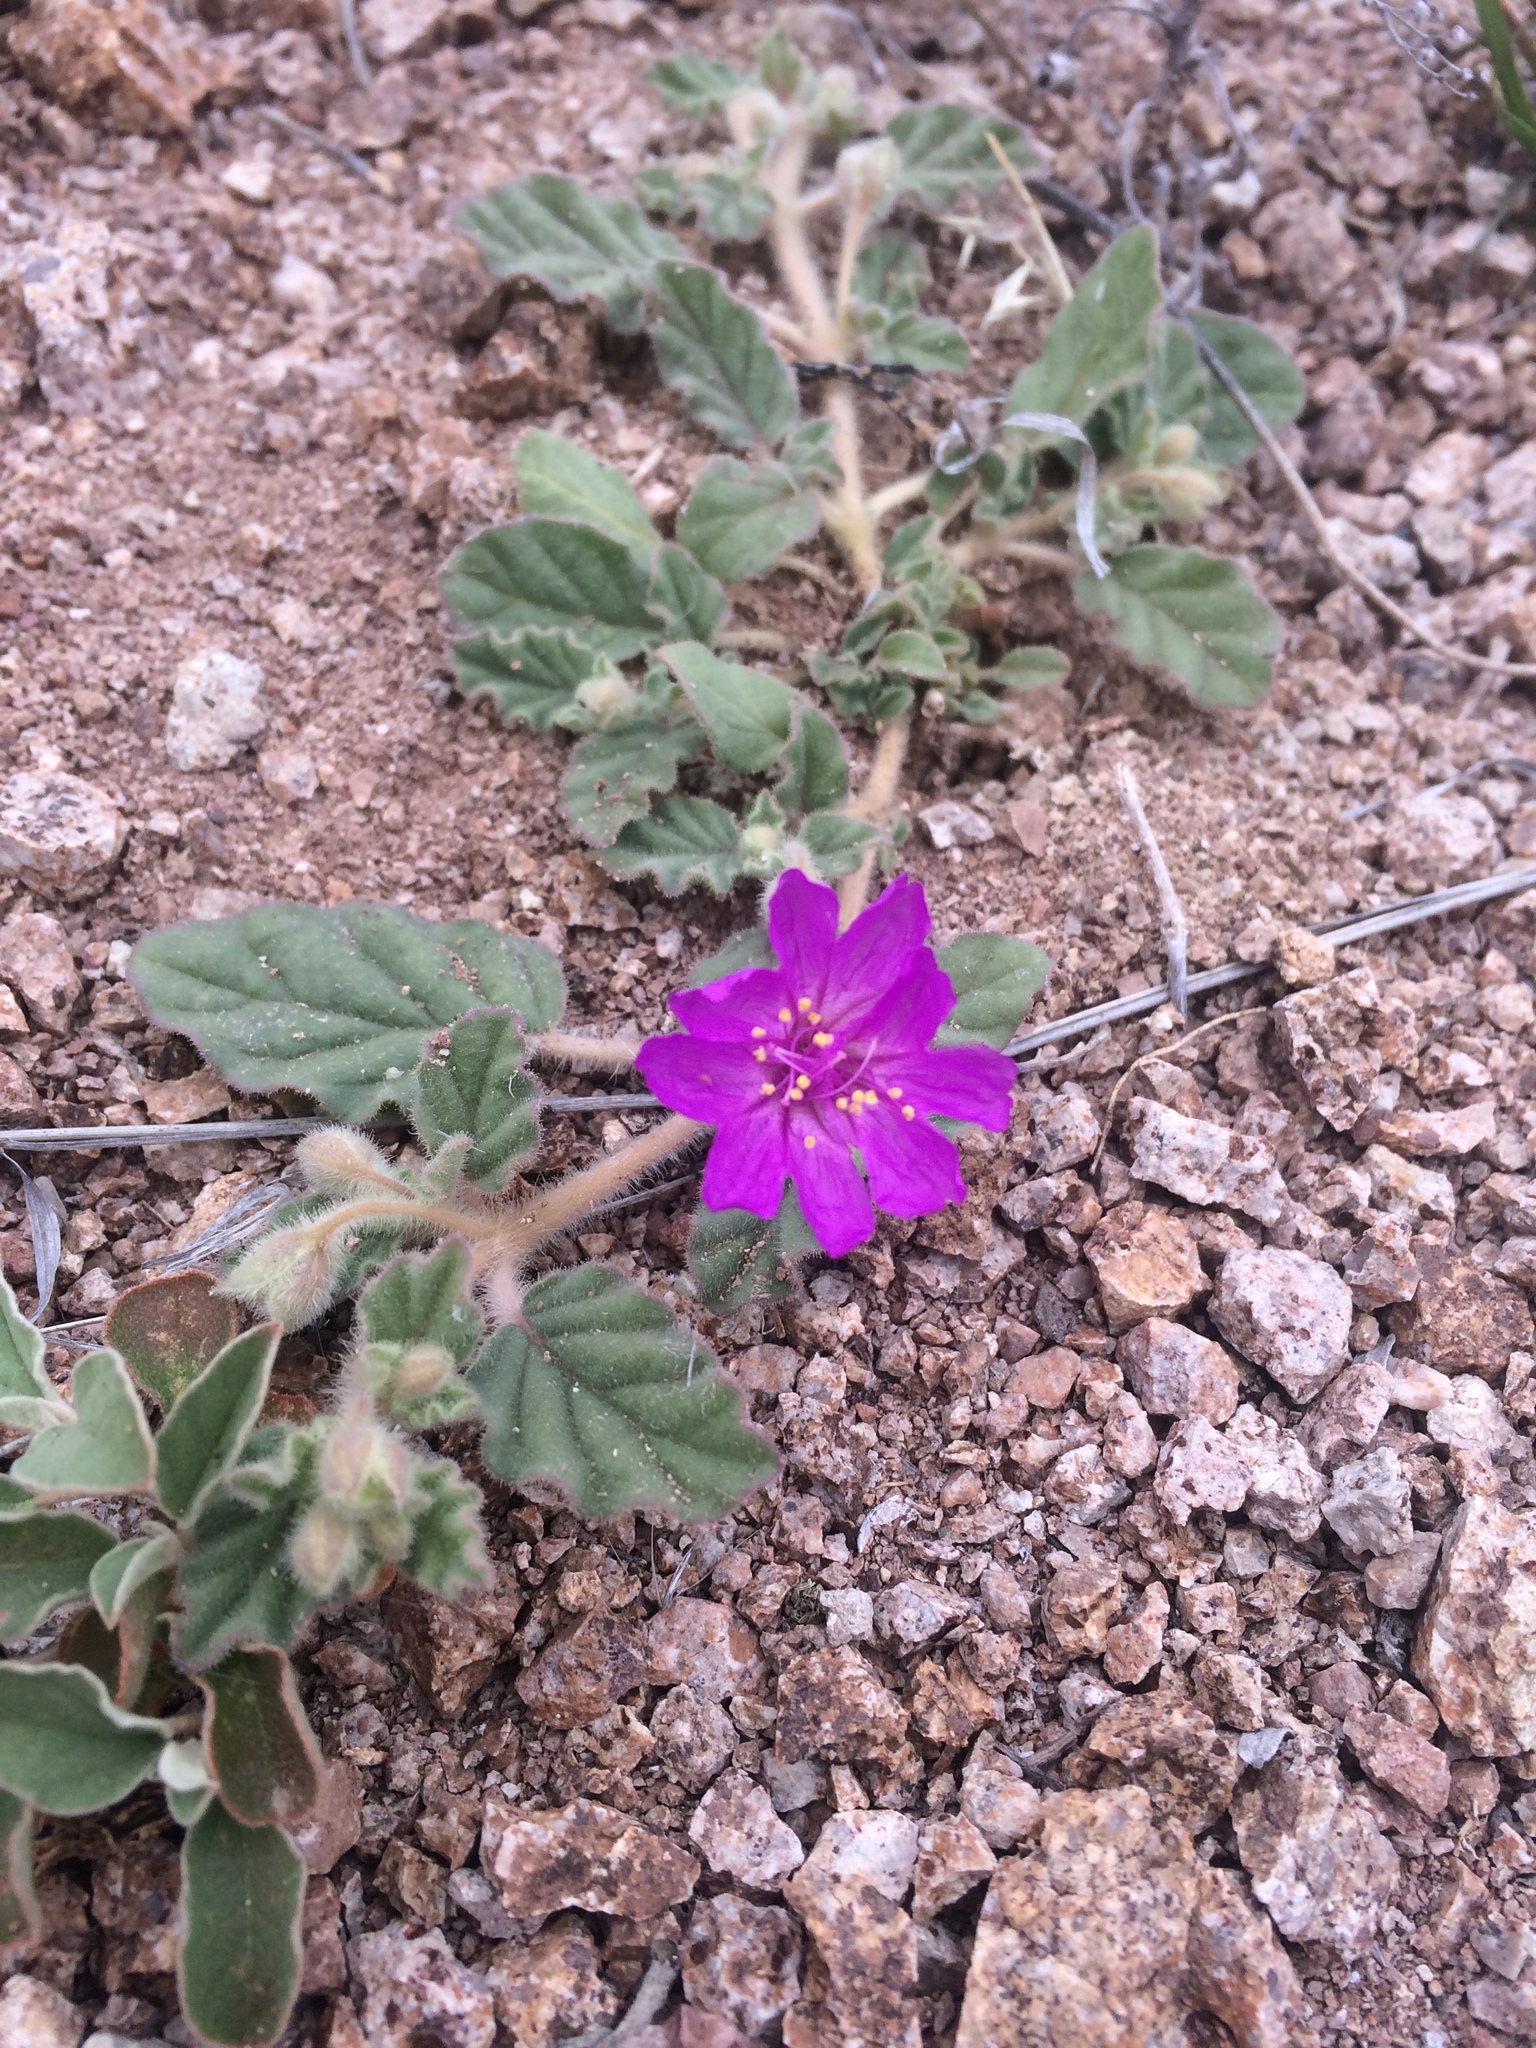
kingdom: Plantae
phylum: Tracheophyta
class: Magnoliopsida
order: Caryophyllales
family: Nyctaginaceae
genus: Allionia
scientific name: Allionia incarnata
